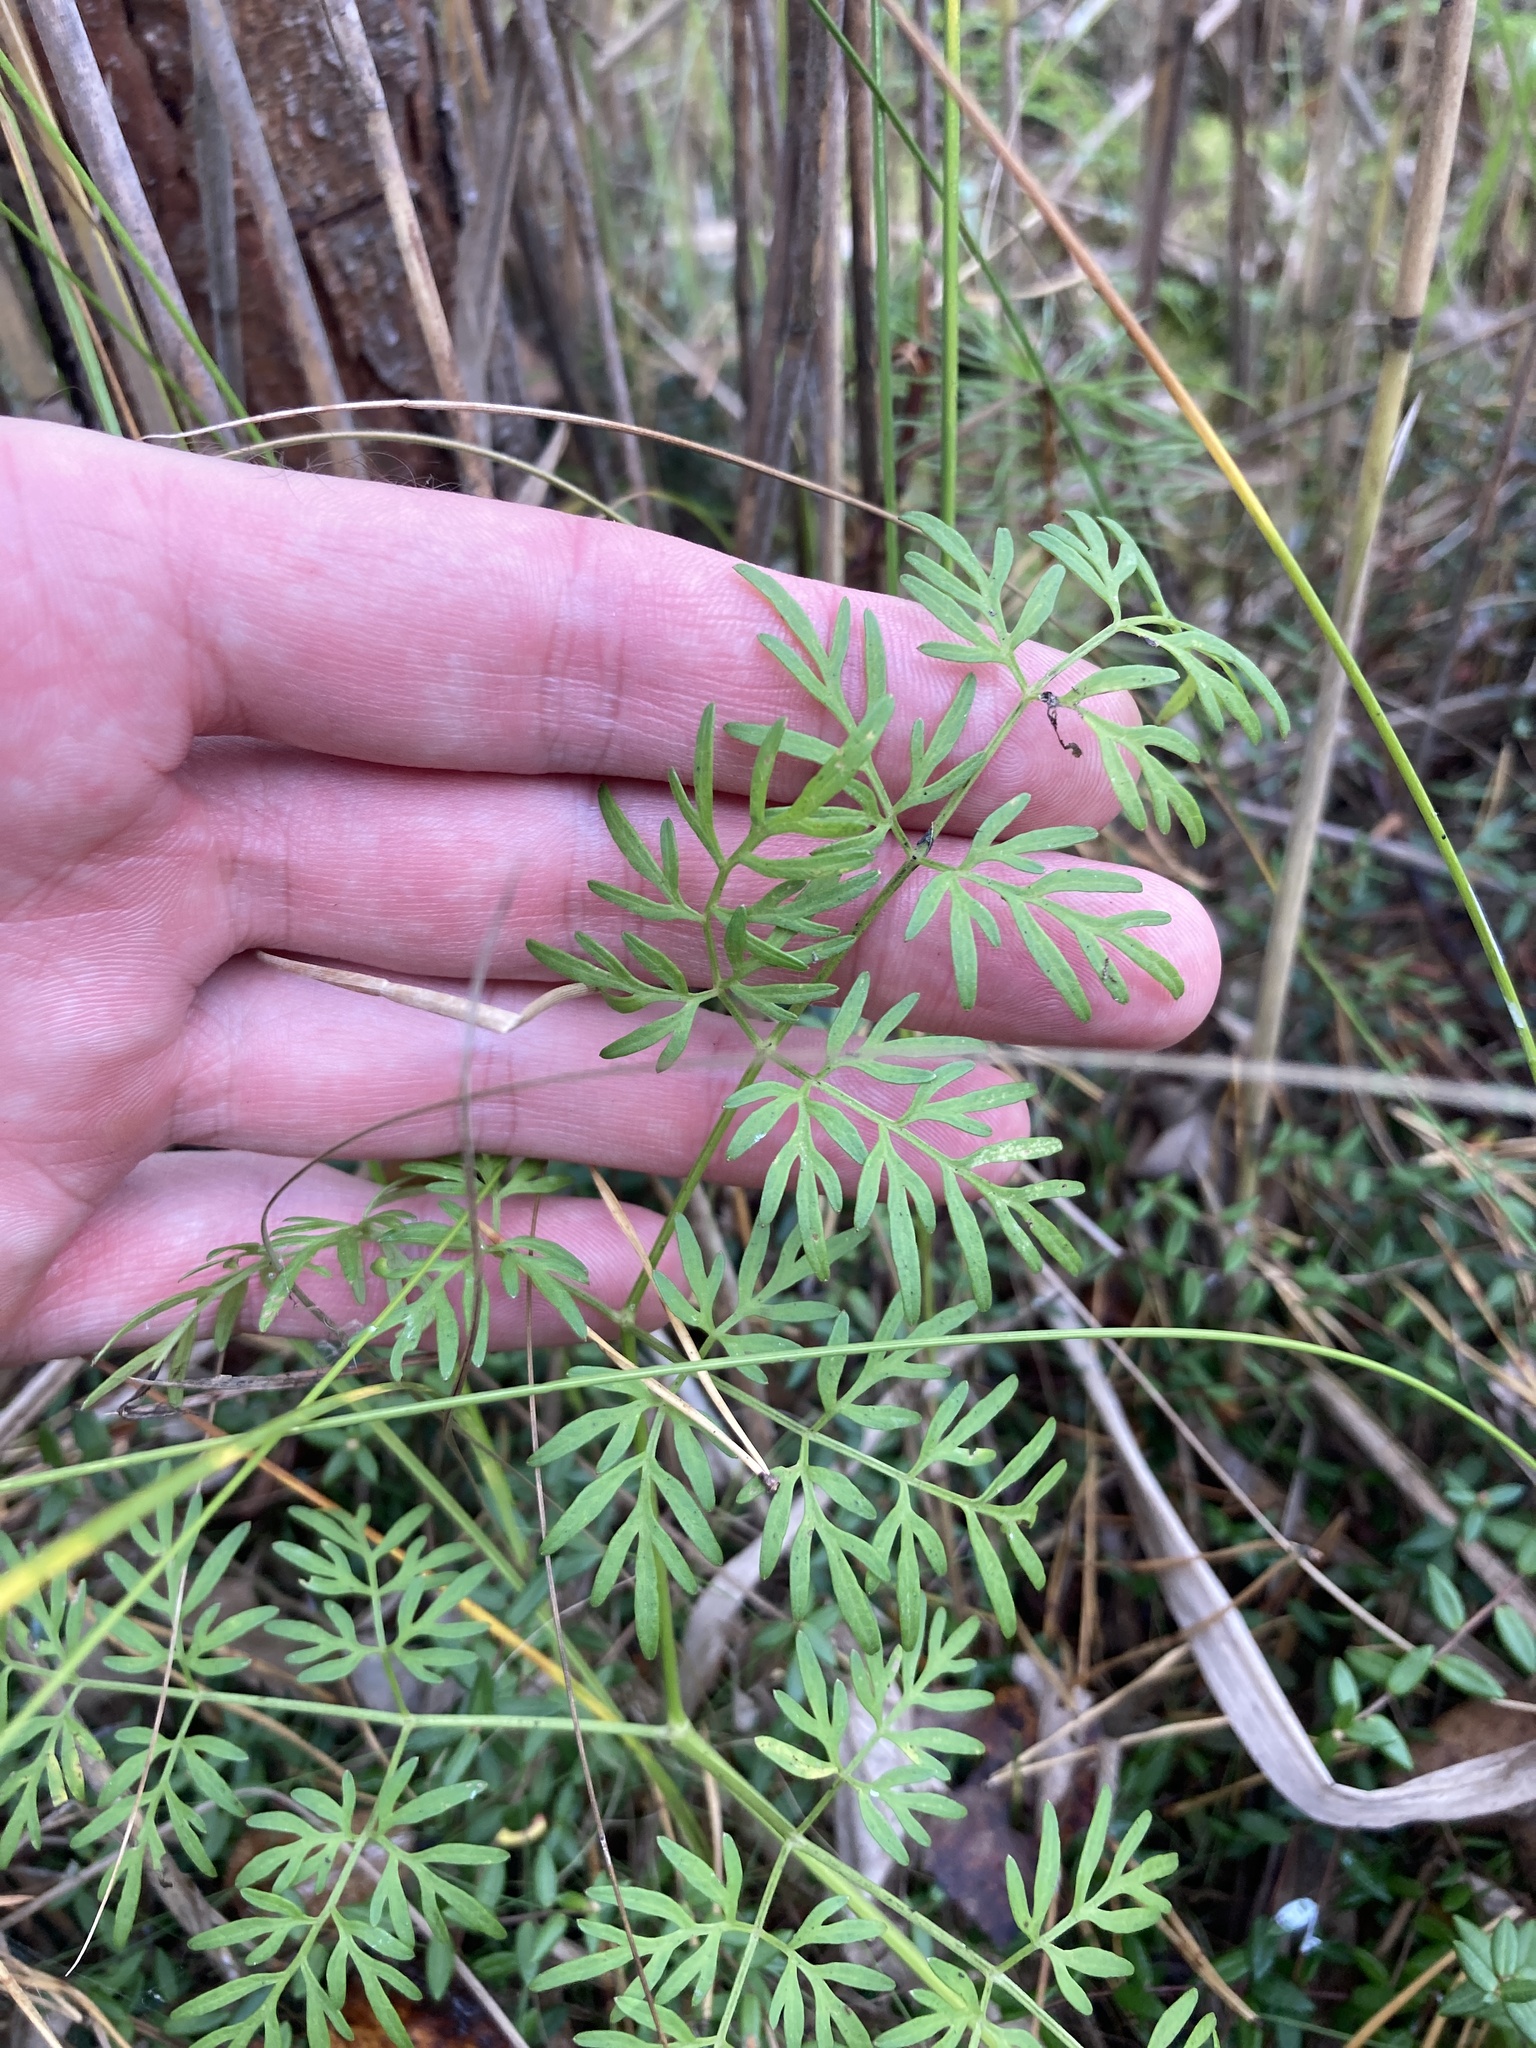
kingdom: Plantae
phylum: Tracheophyta
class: Magnoliopsida
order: Apiales
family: Apiaceae
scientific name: Apiaceae
